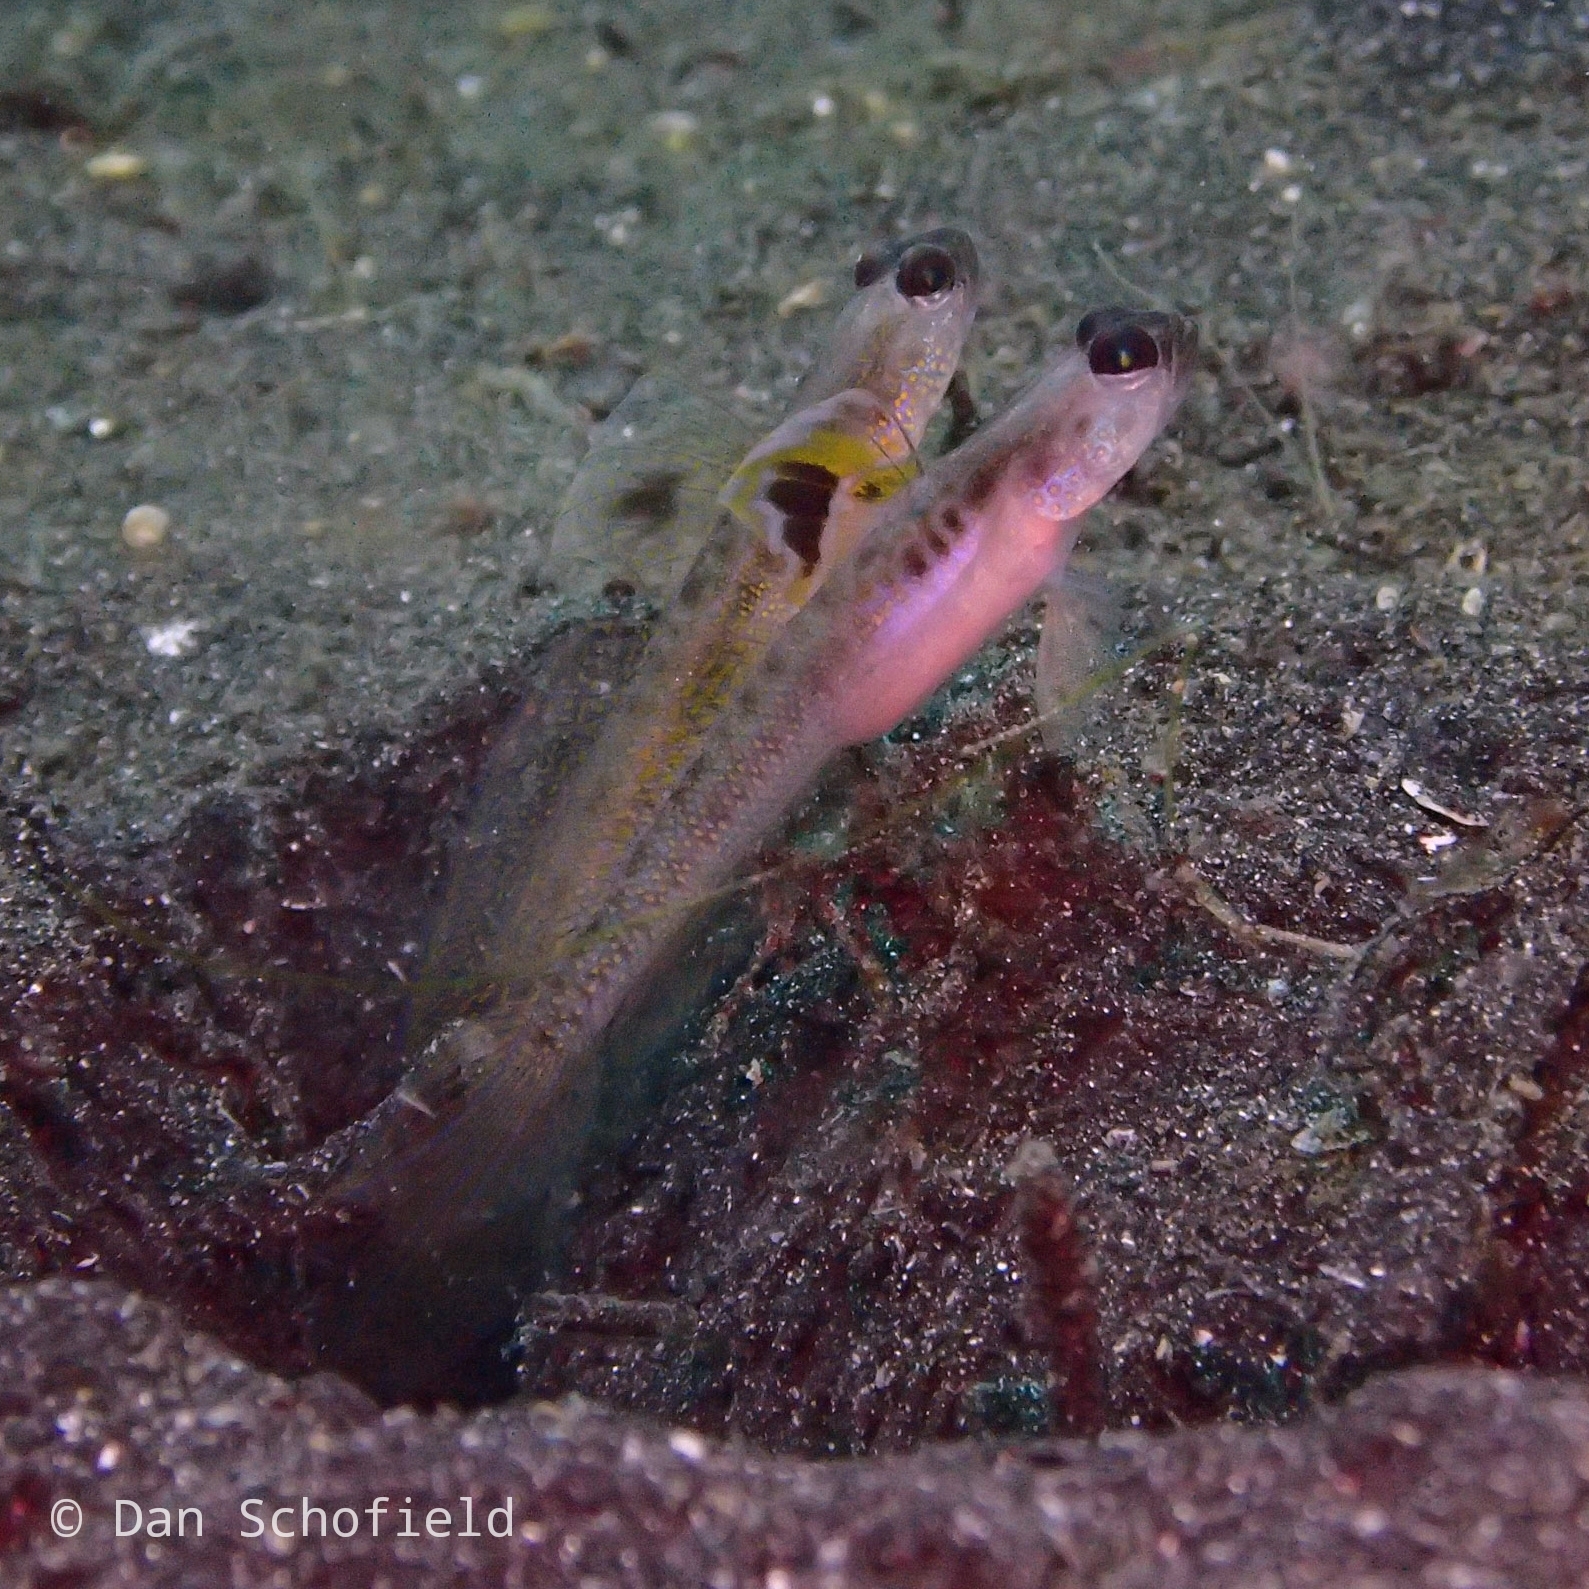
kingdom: Animalia
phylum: Chordata
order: Perciformes
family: Gobiidae
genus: Vanderhorstia
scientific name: Vanderhorstia dorsomacula
